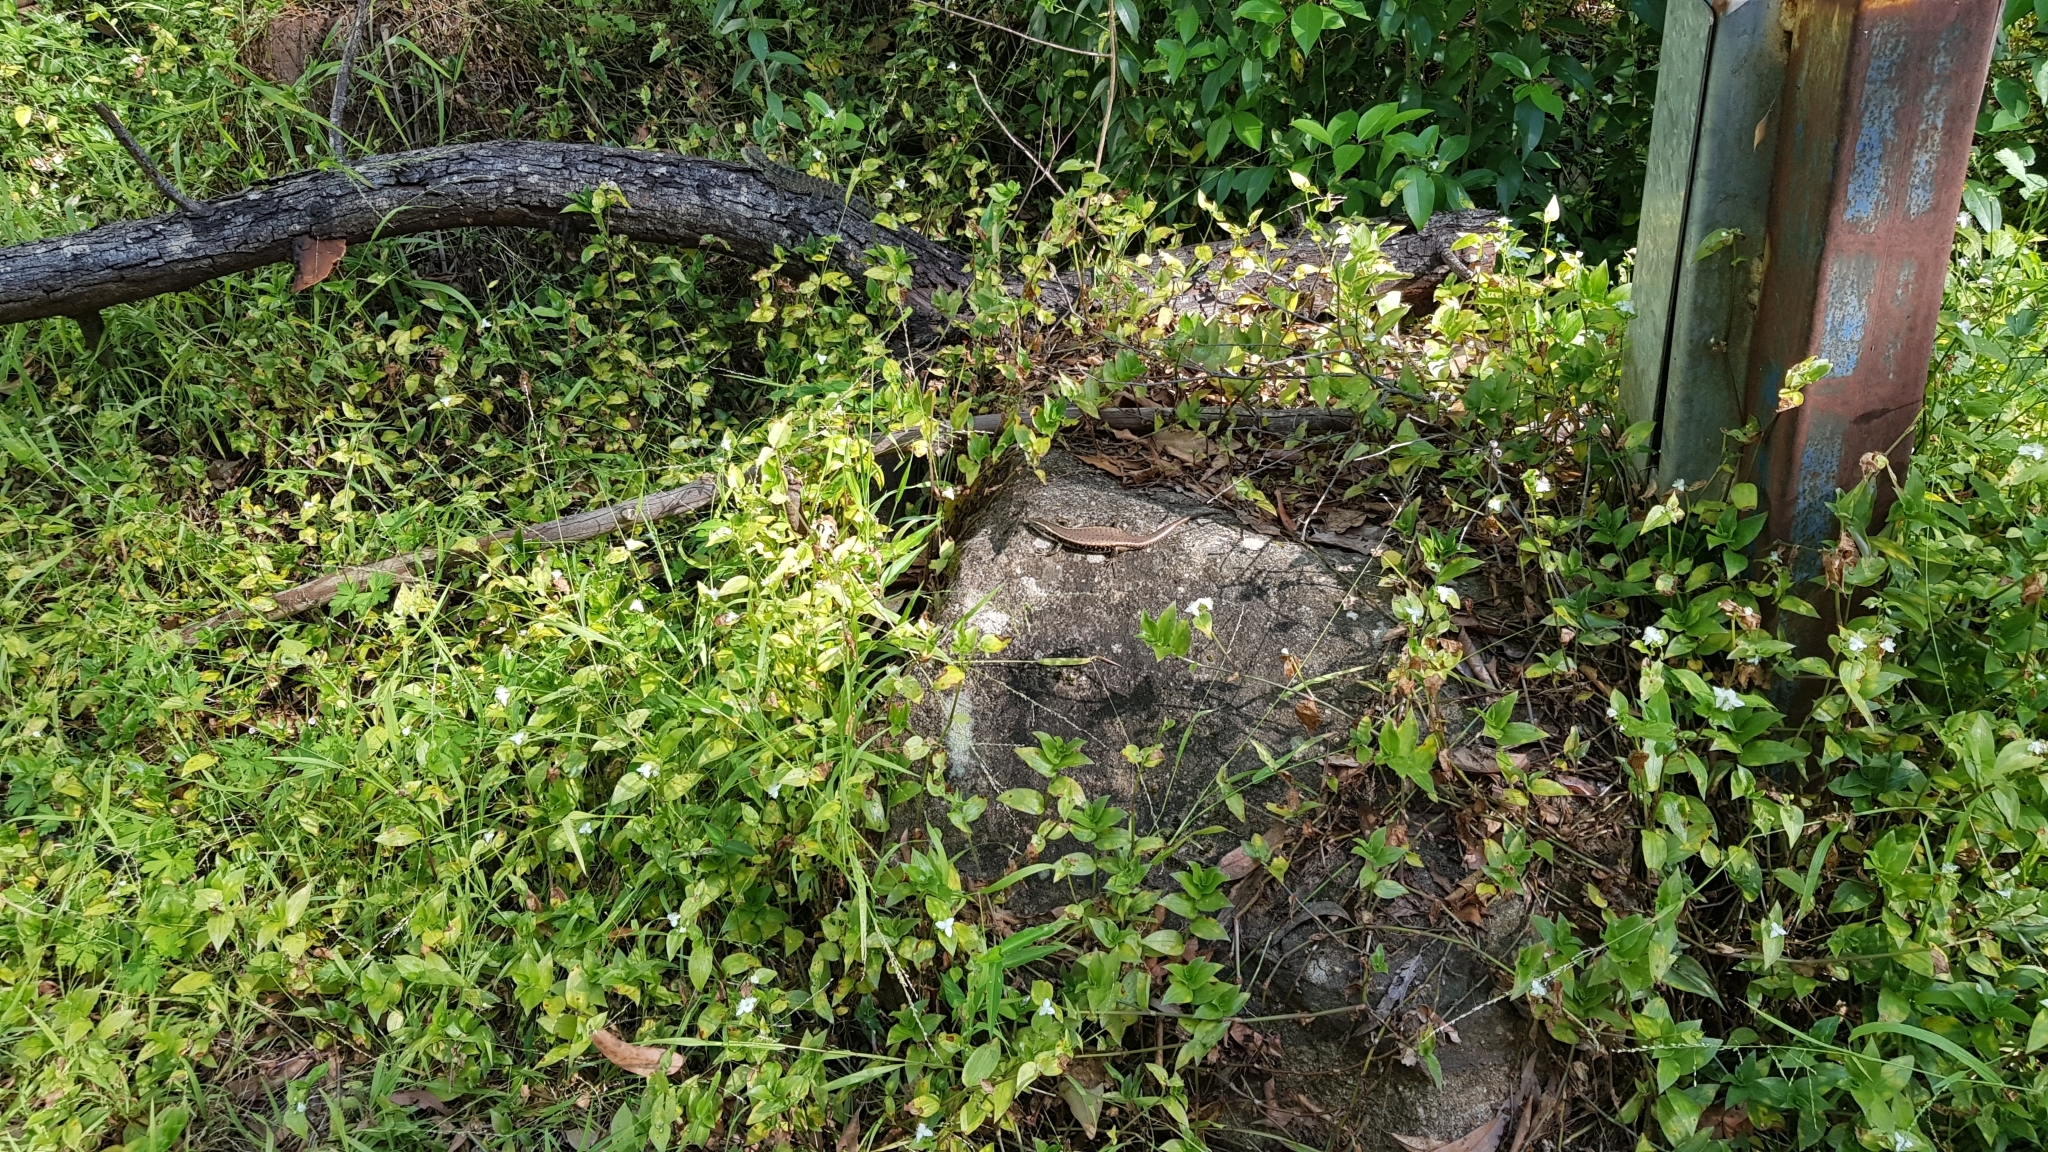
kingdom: Animalia
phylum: Chordata
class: Squamata
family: Scincidae
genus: Eulamprus
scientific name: Eulamprus quoyii
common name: Eastern water skink
